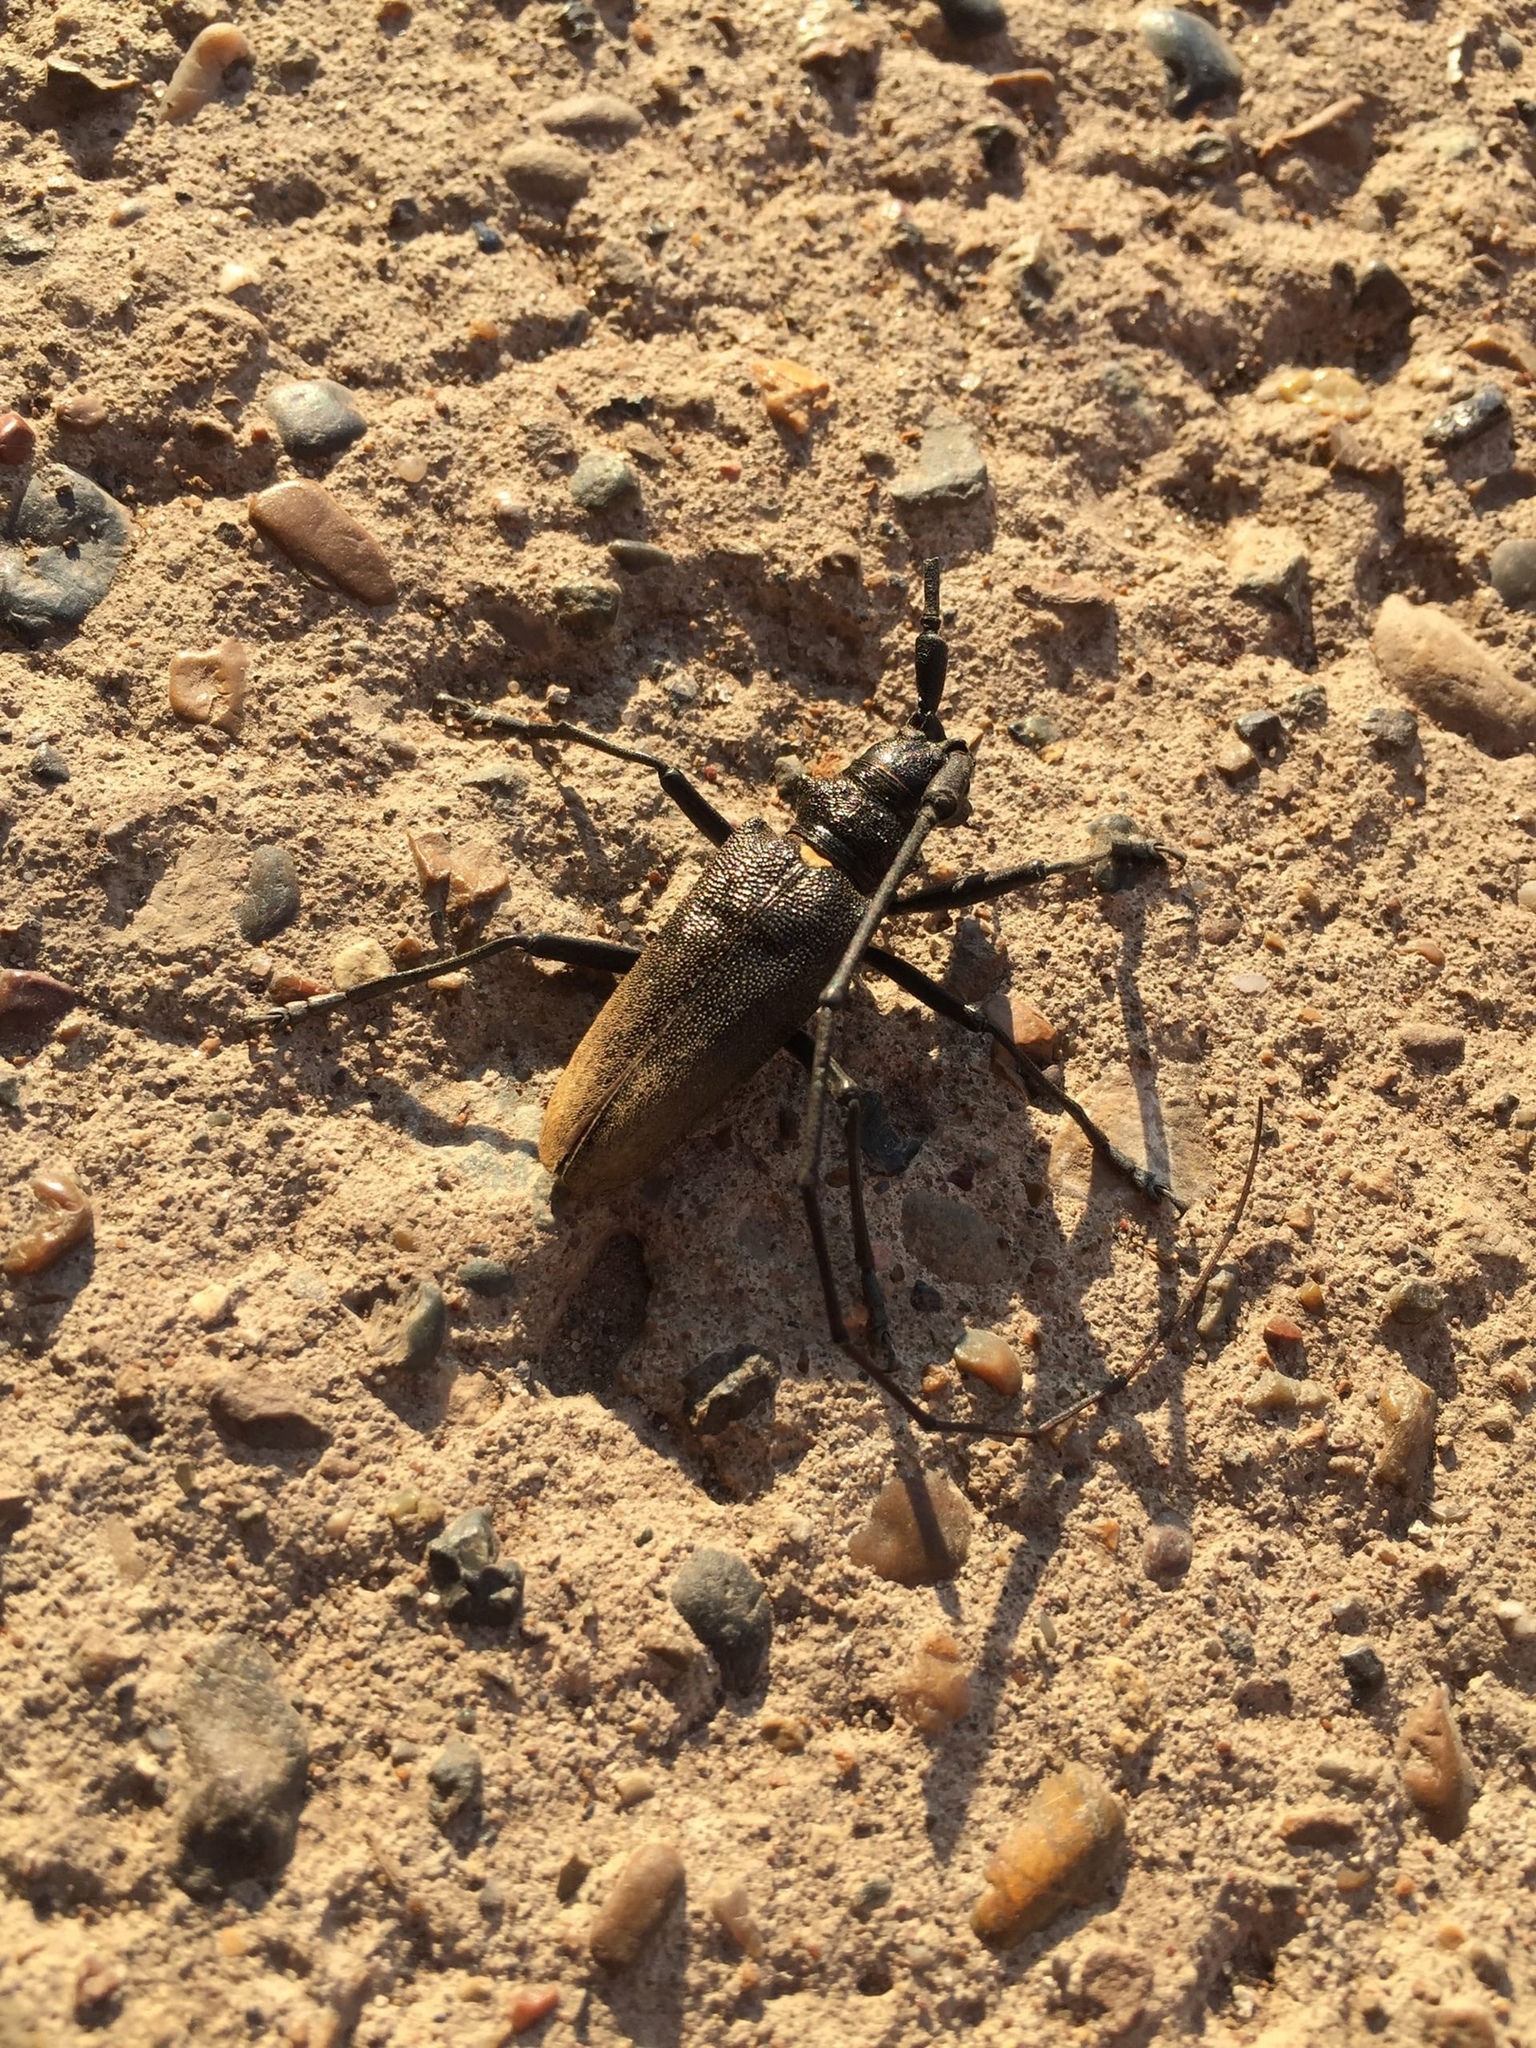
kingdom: Animalia
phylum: Arthropoda
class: Insecta
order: Coleoptera
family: Cerambycidae
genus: Monochamus
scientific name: Monochamus urussovii
